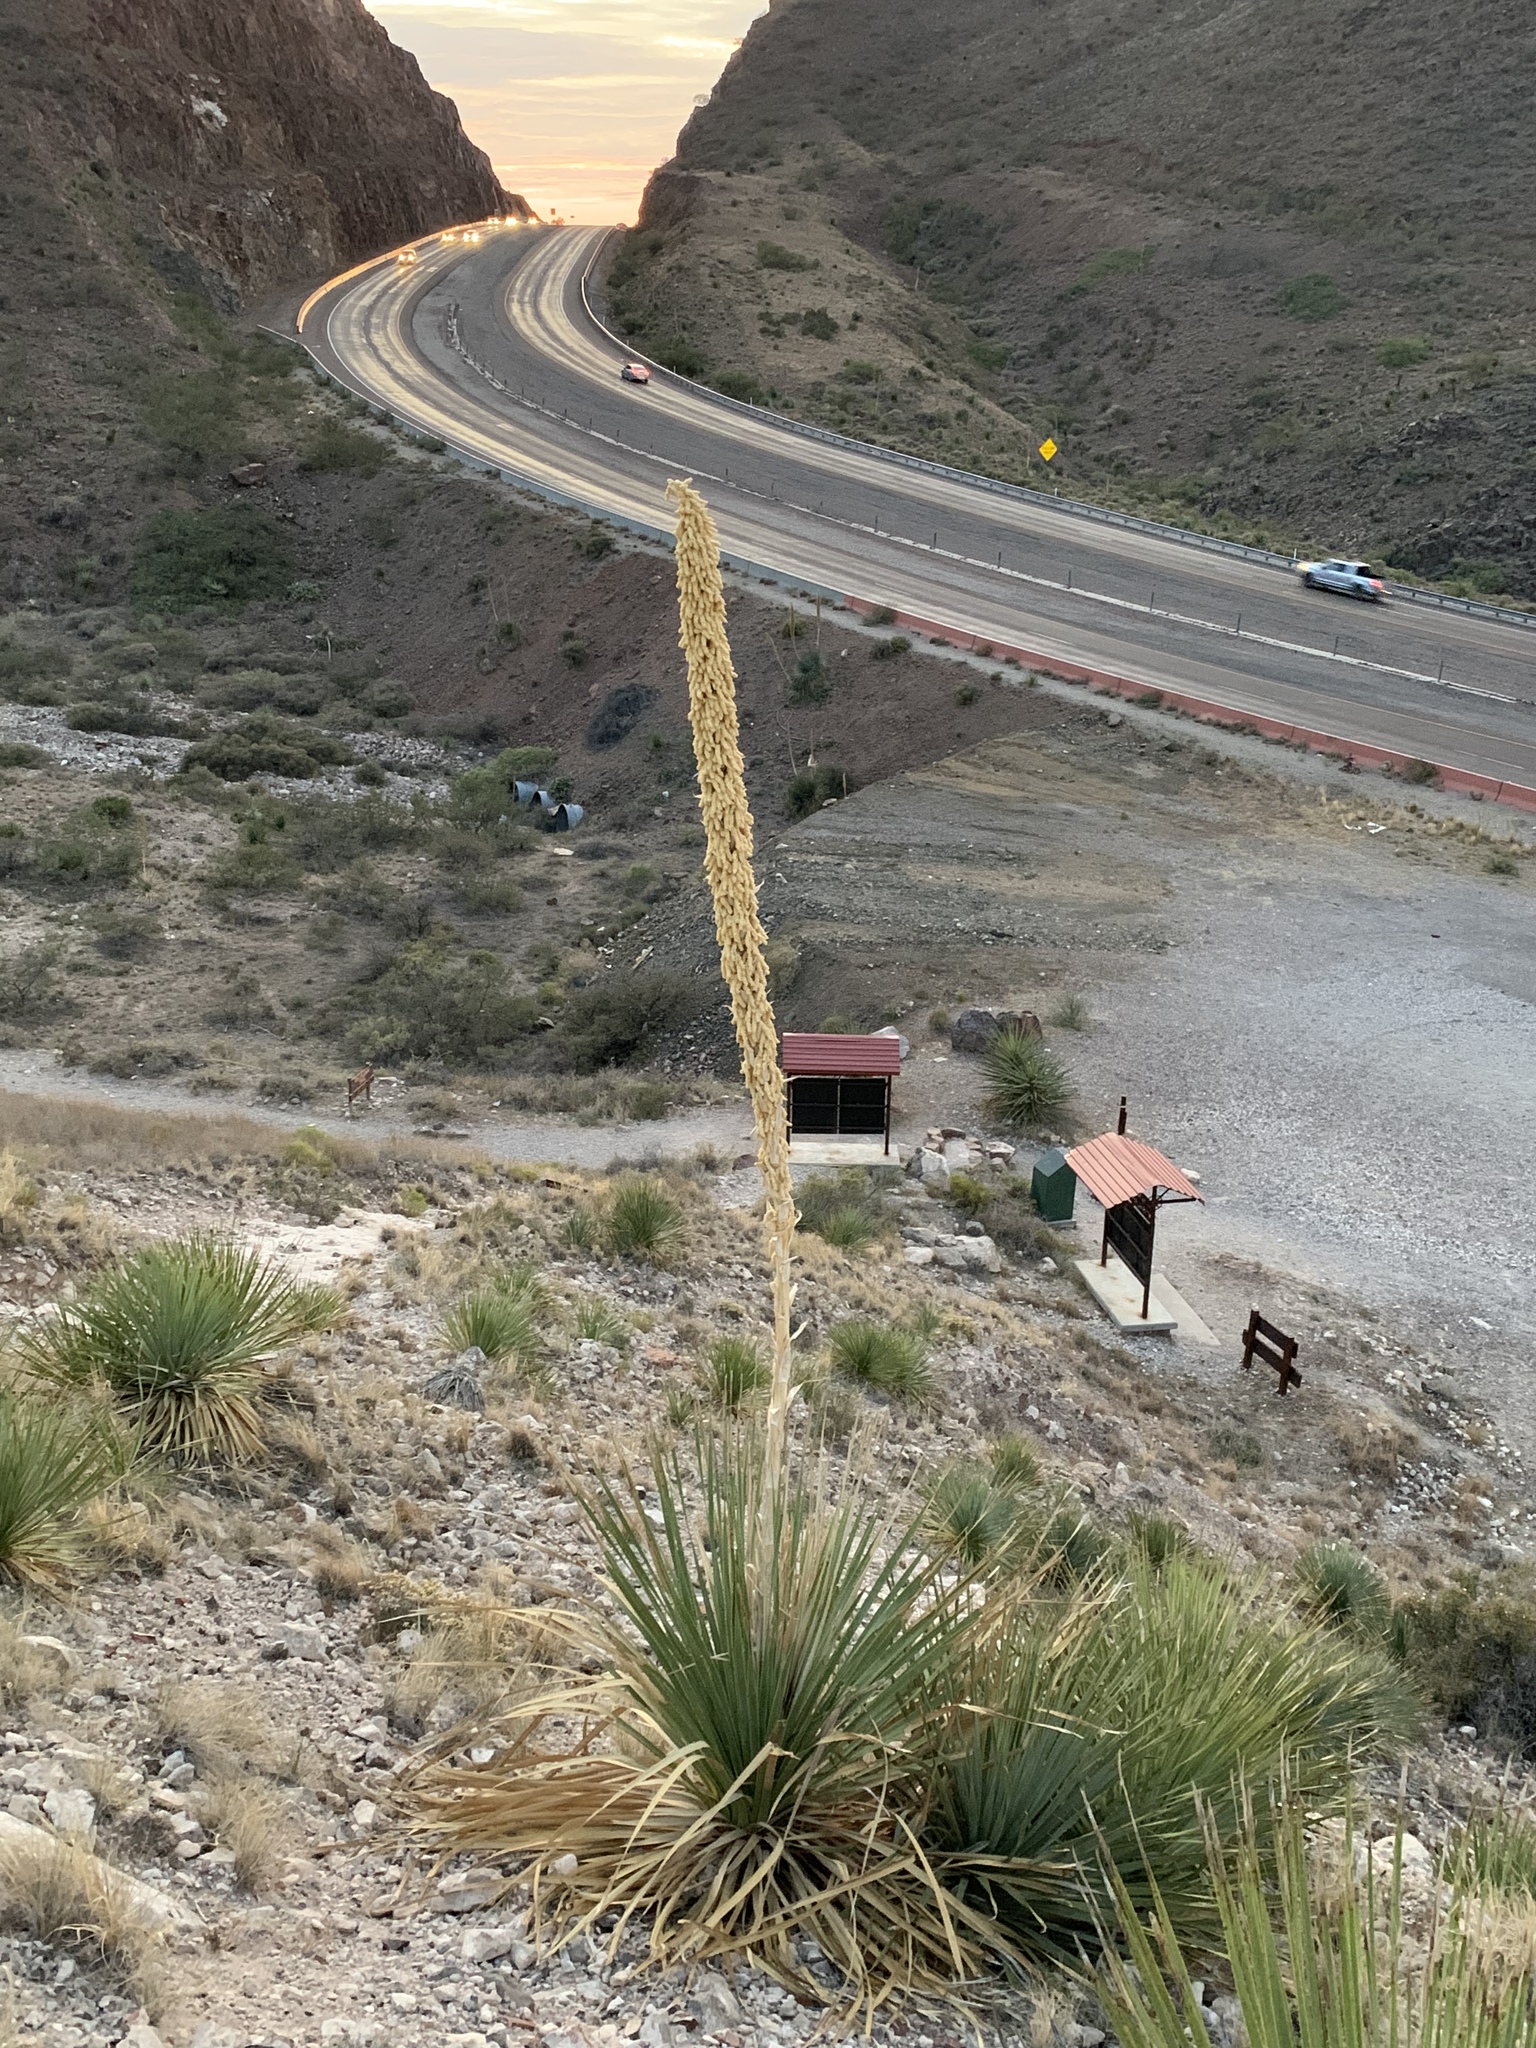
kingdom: Plantae
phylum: Tracheophyta
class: Liliopsida
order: Asparagales
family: Asparagaceae
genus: Dasylirion
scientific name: Dasylirion wheeleri
